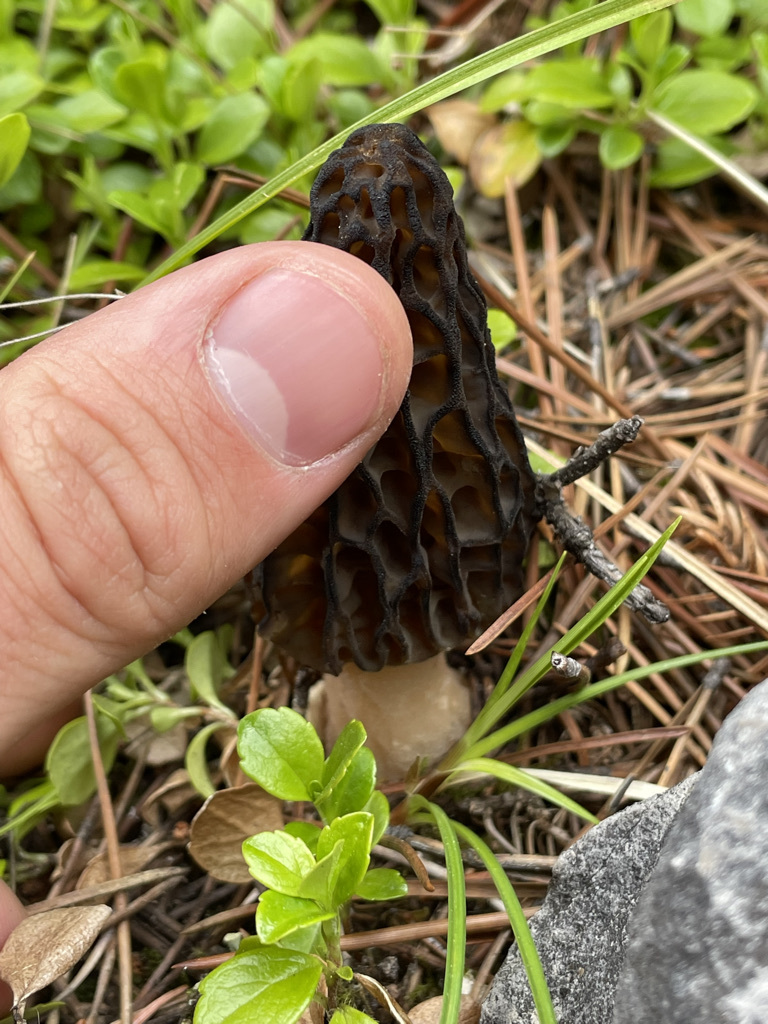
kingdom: Fungi
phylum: Ascomycota
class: Pezizomycetes
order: Pezizales
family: Morchellaceae
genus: Morchella
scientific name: Morchella angusticeps
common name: Black morel
